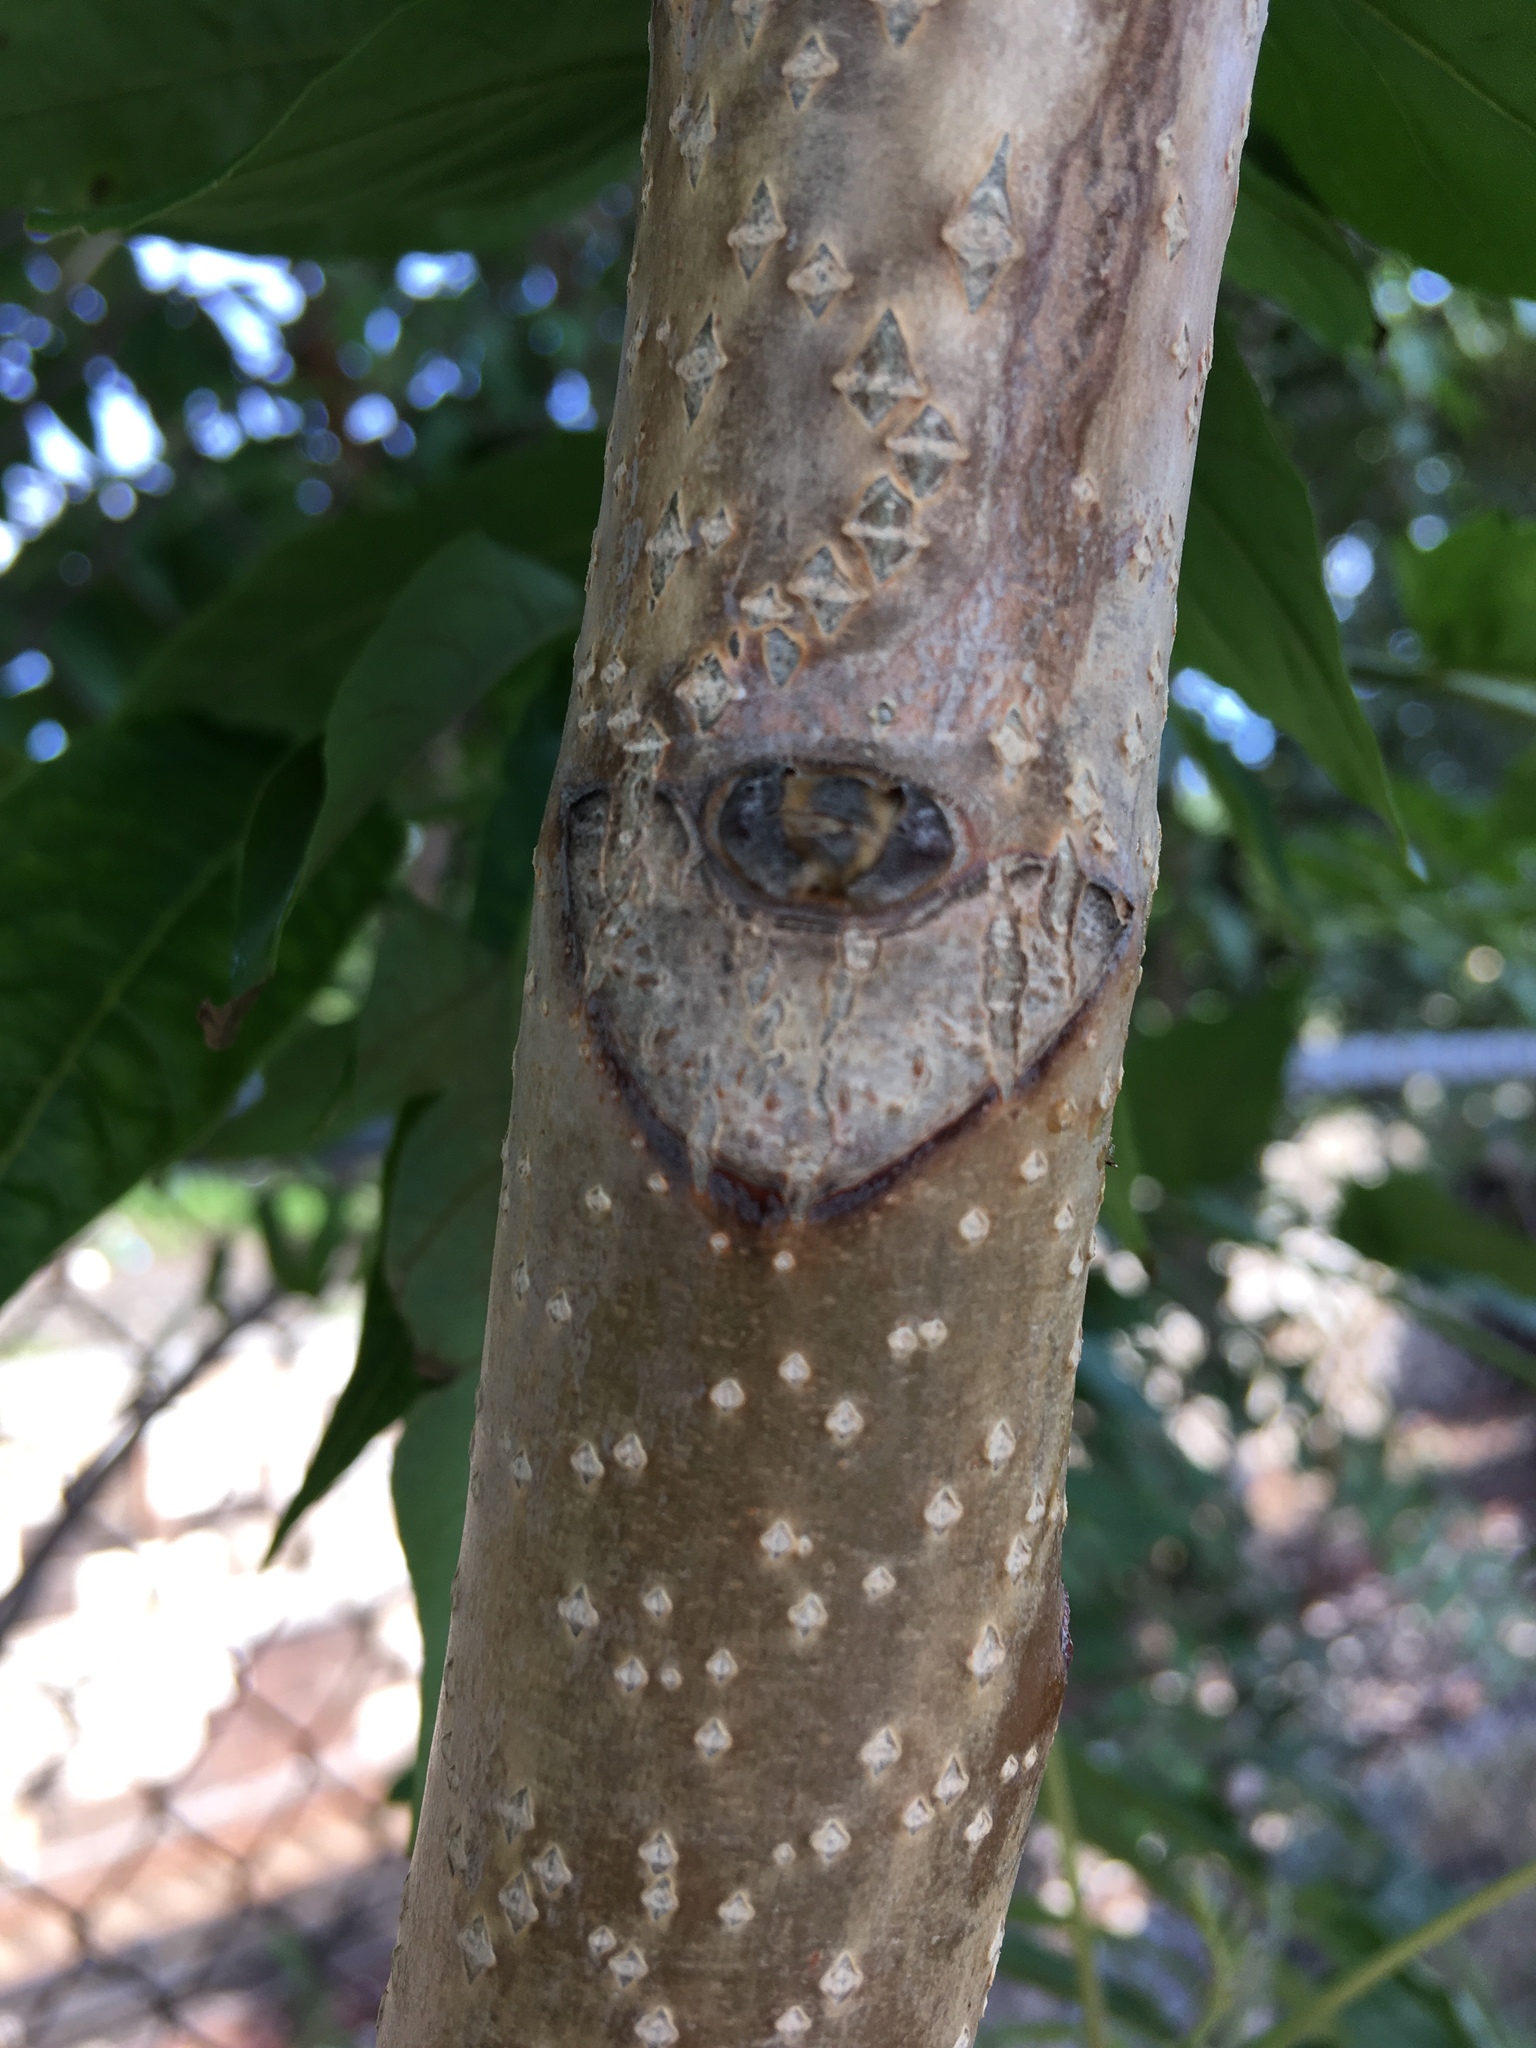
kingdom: Plantae
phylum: Tracheophyta
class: Magnoliopsida
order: Sapindales
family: Simaroubaceae
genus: Ailanthus
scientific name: Ailanthus altissima
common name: Tree-of-heaven
